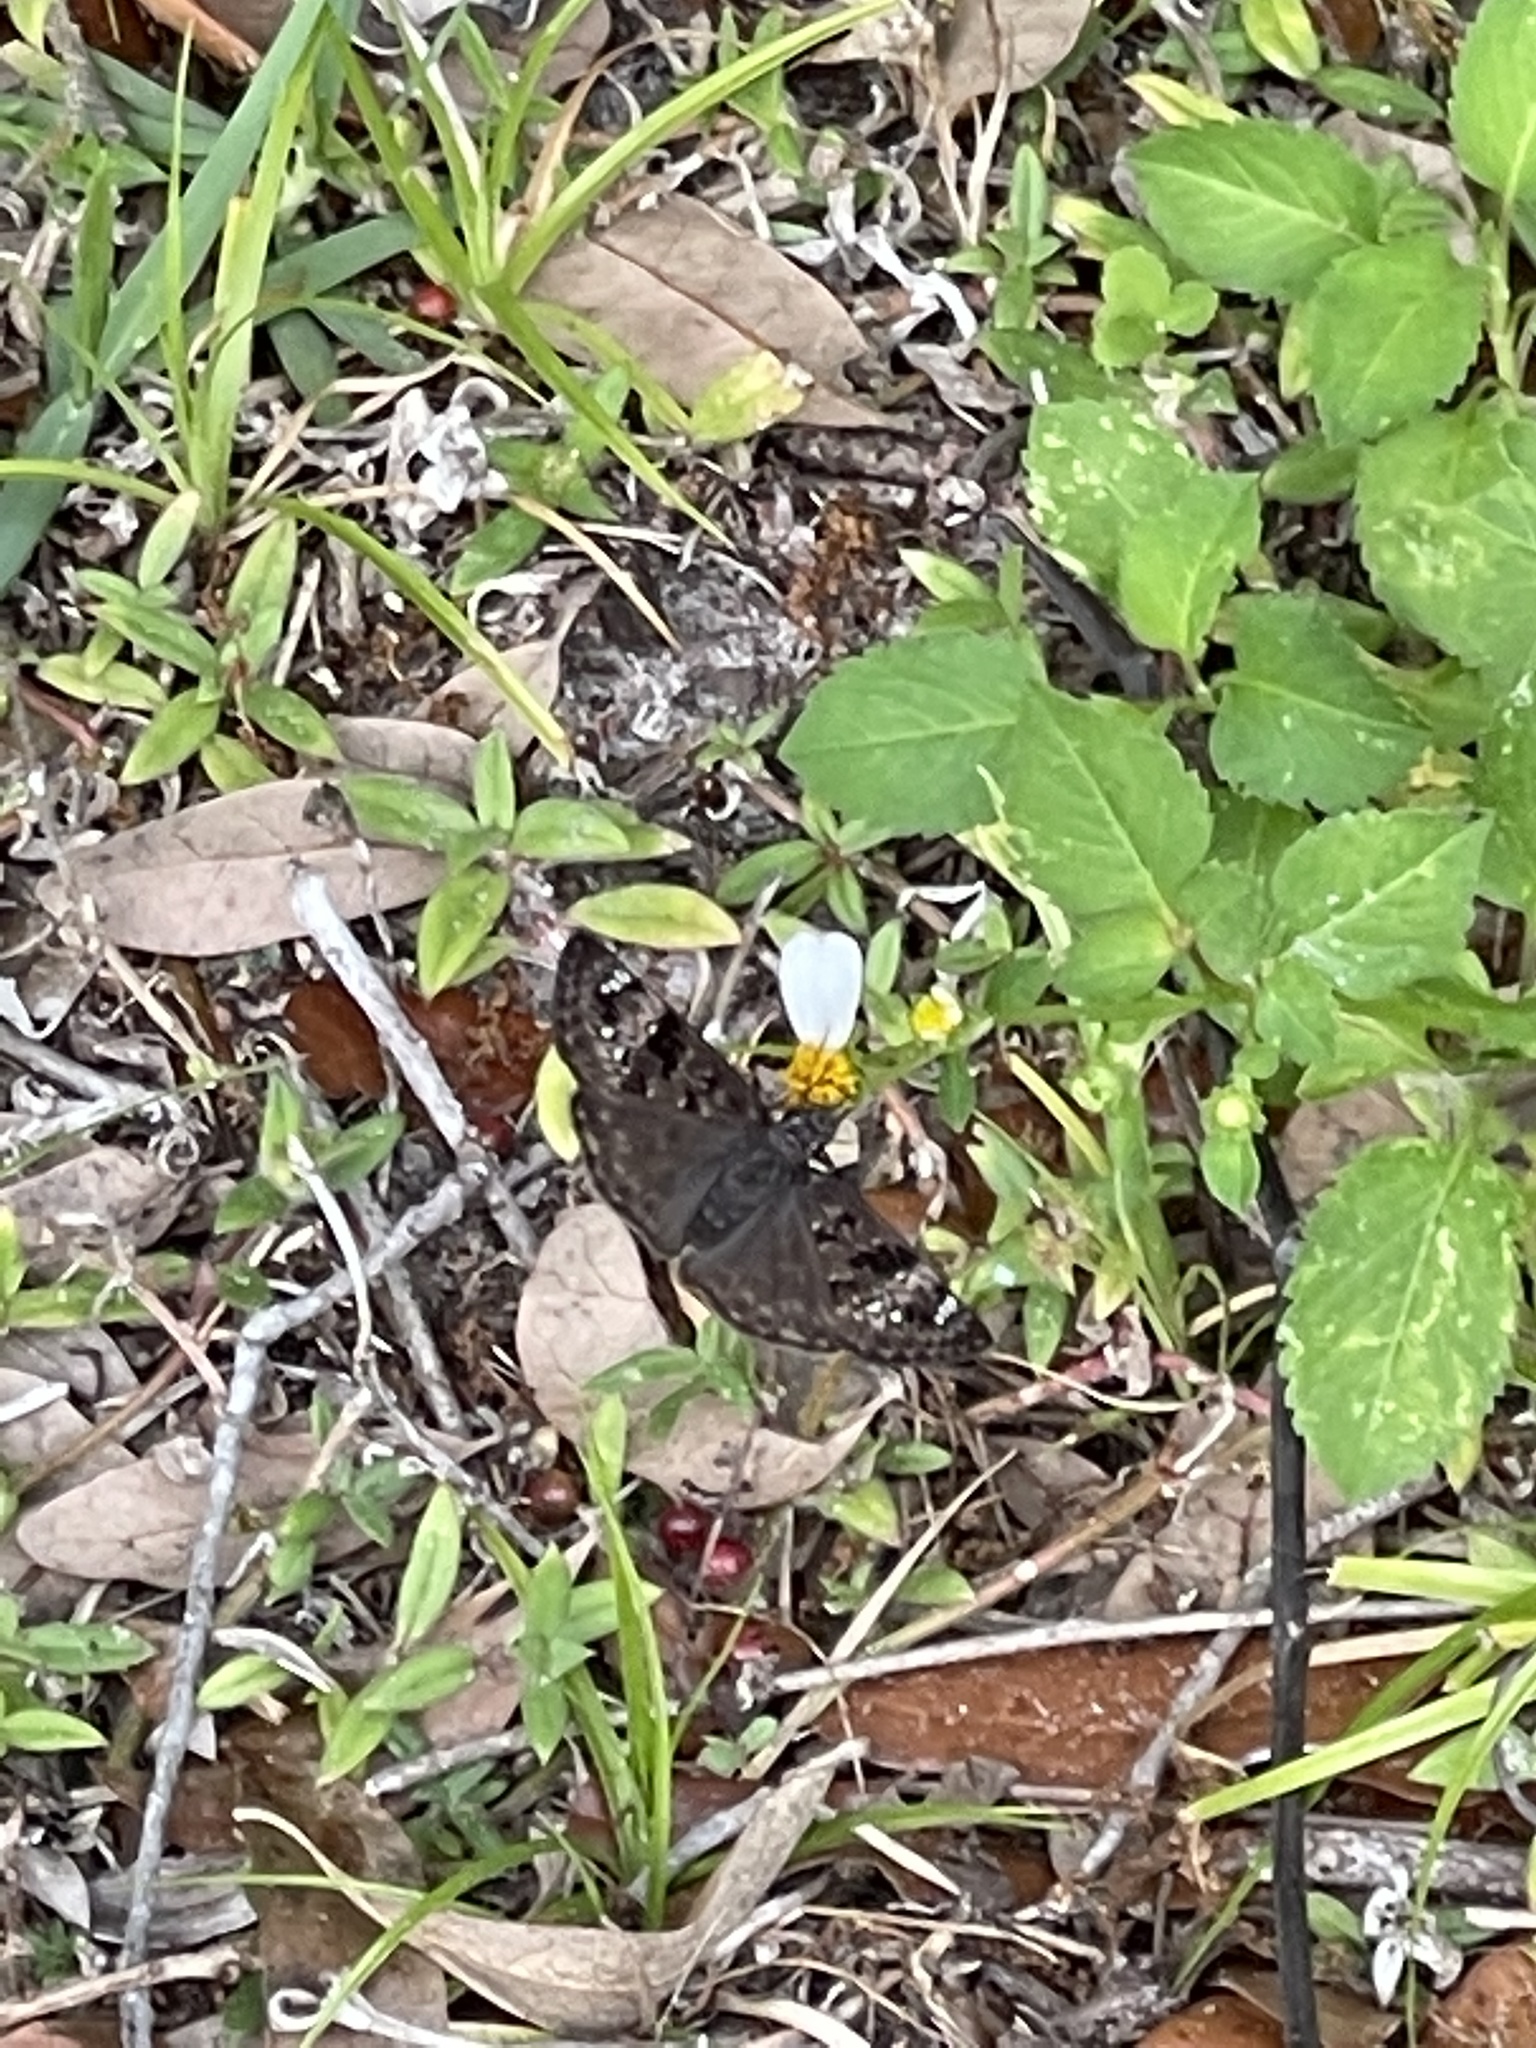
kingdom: Animalia
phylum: Arthropoda
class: Insecta
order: Lepidoptera
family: Hesperiidae
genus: Erynnis
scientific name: Erynnis horatius
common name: Horace's duskywing
